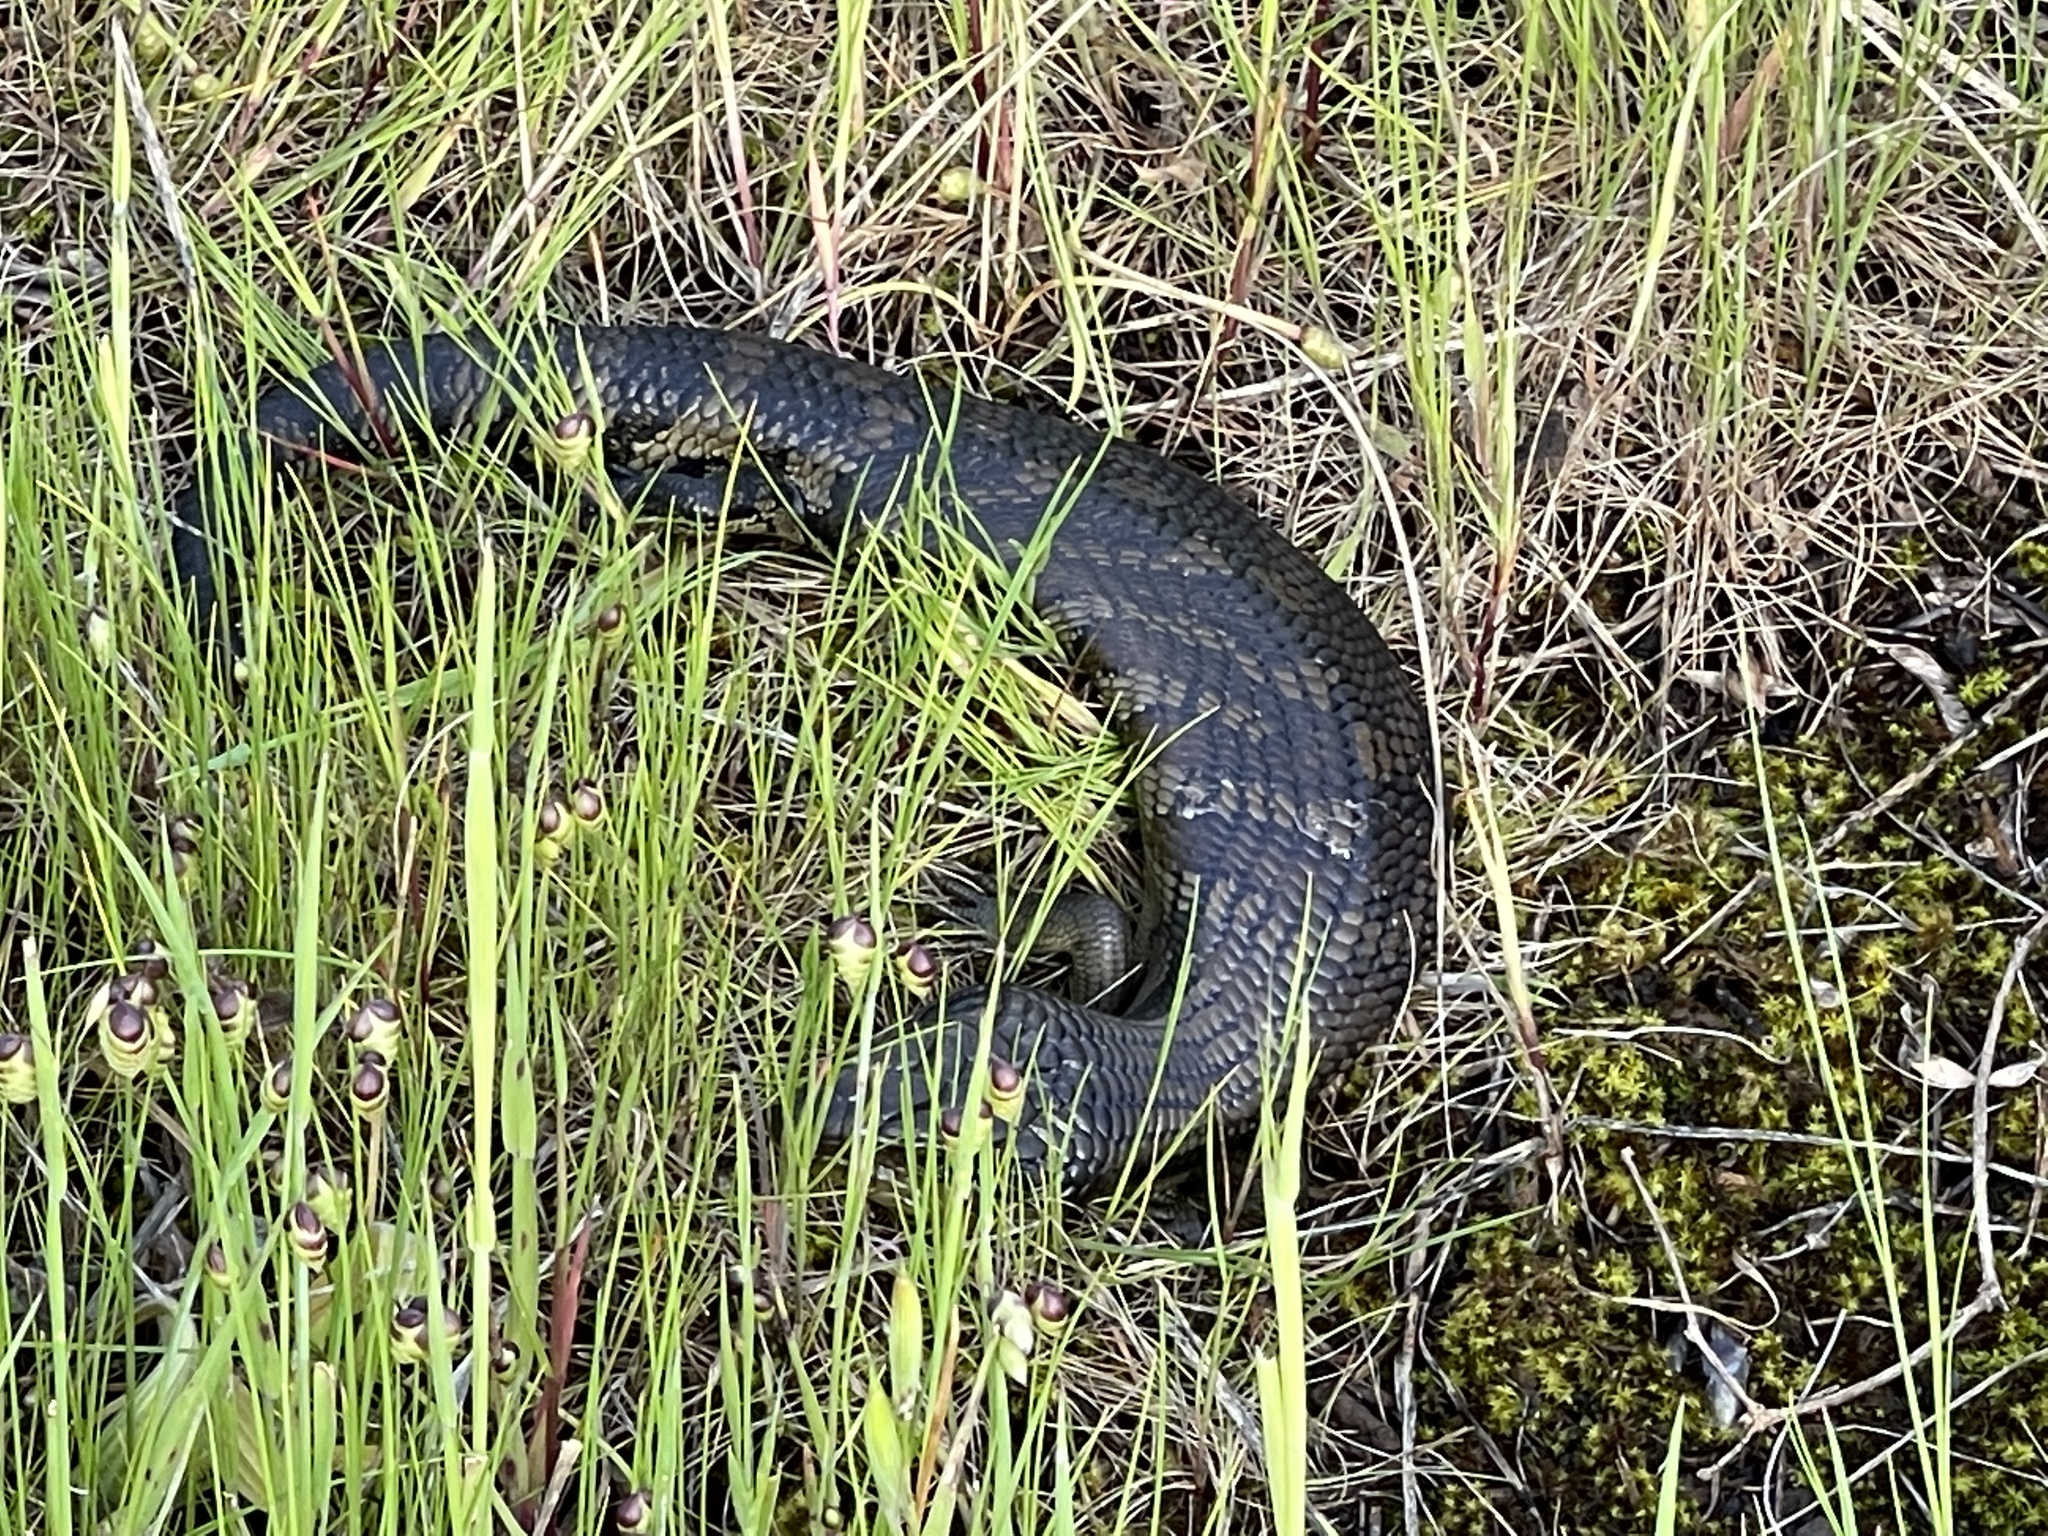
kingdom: Animalia
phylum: Chordata
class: Squamata
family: Scincidae
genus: Tiliqua
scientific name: Tiliqua scincoides
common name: Common bluetongue
